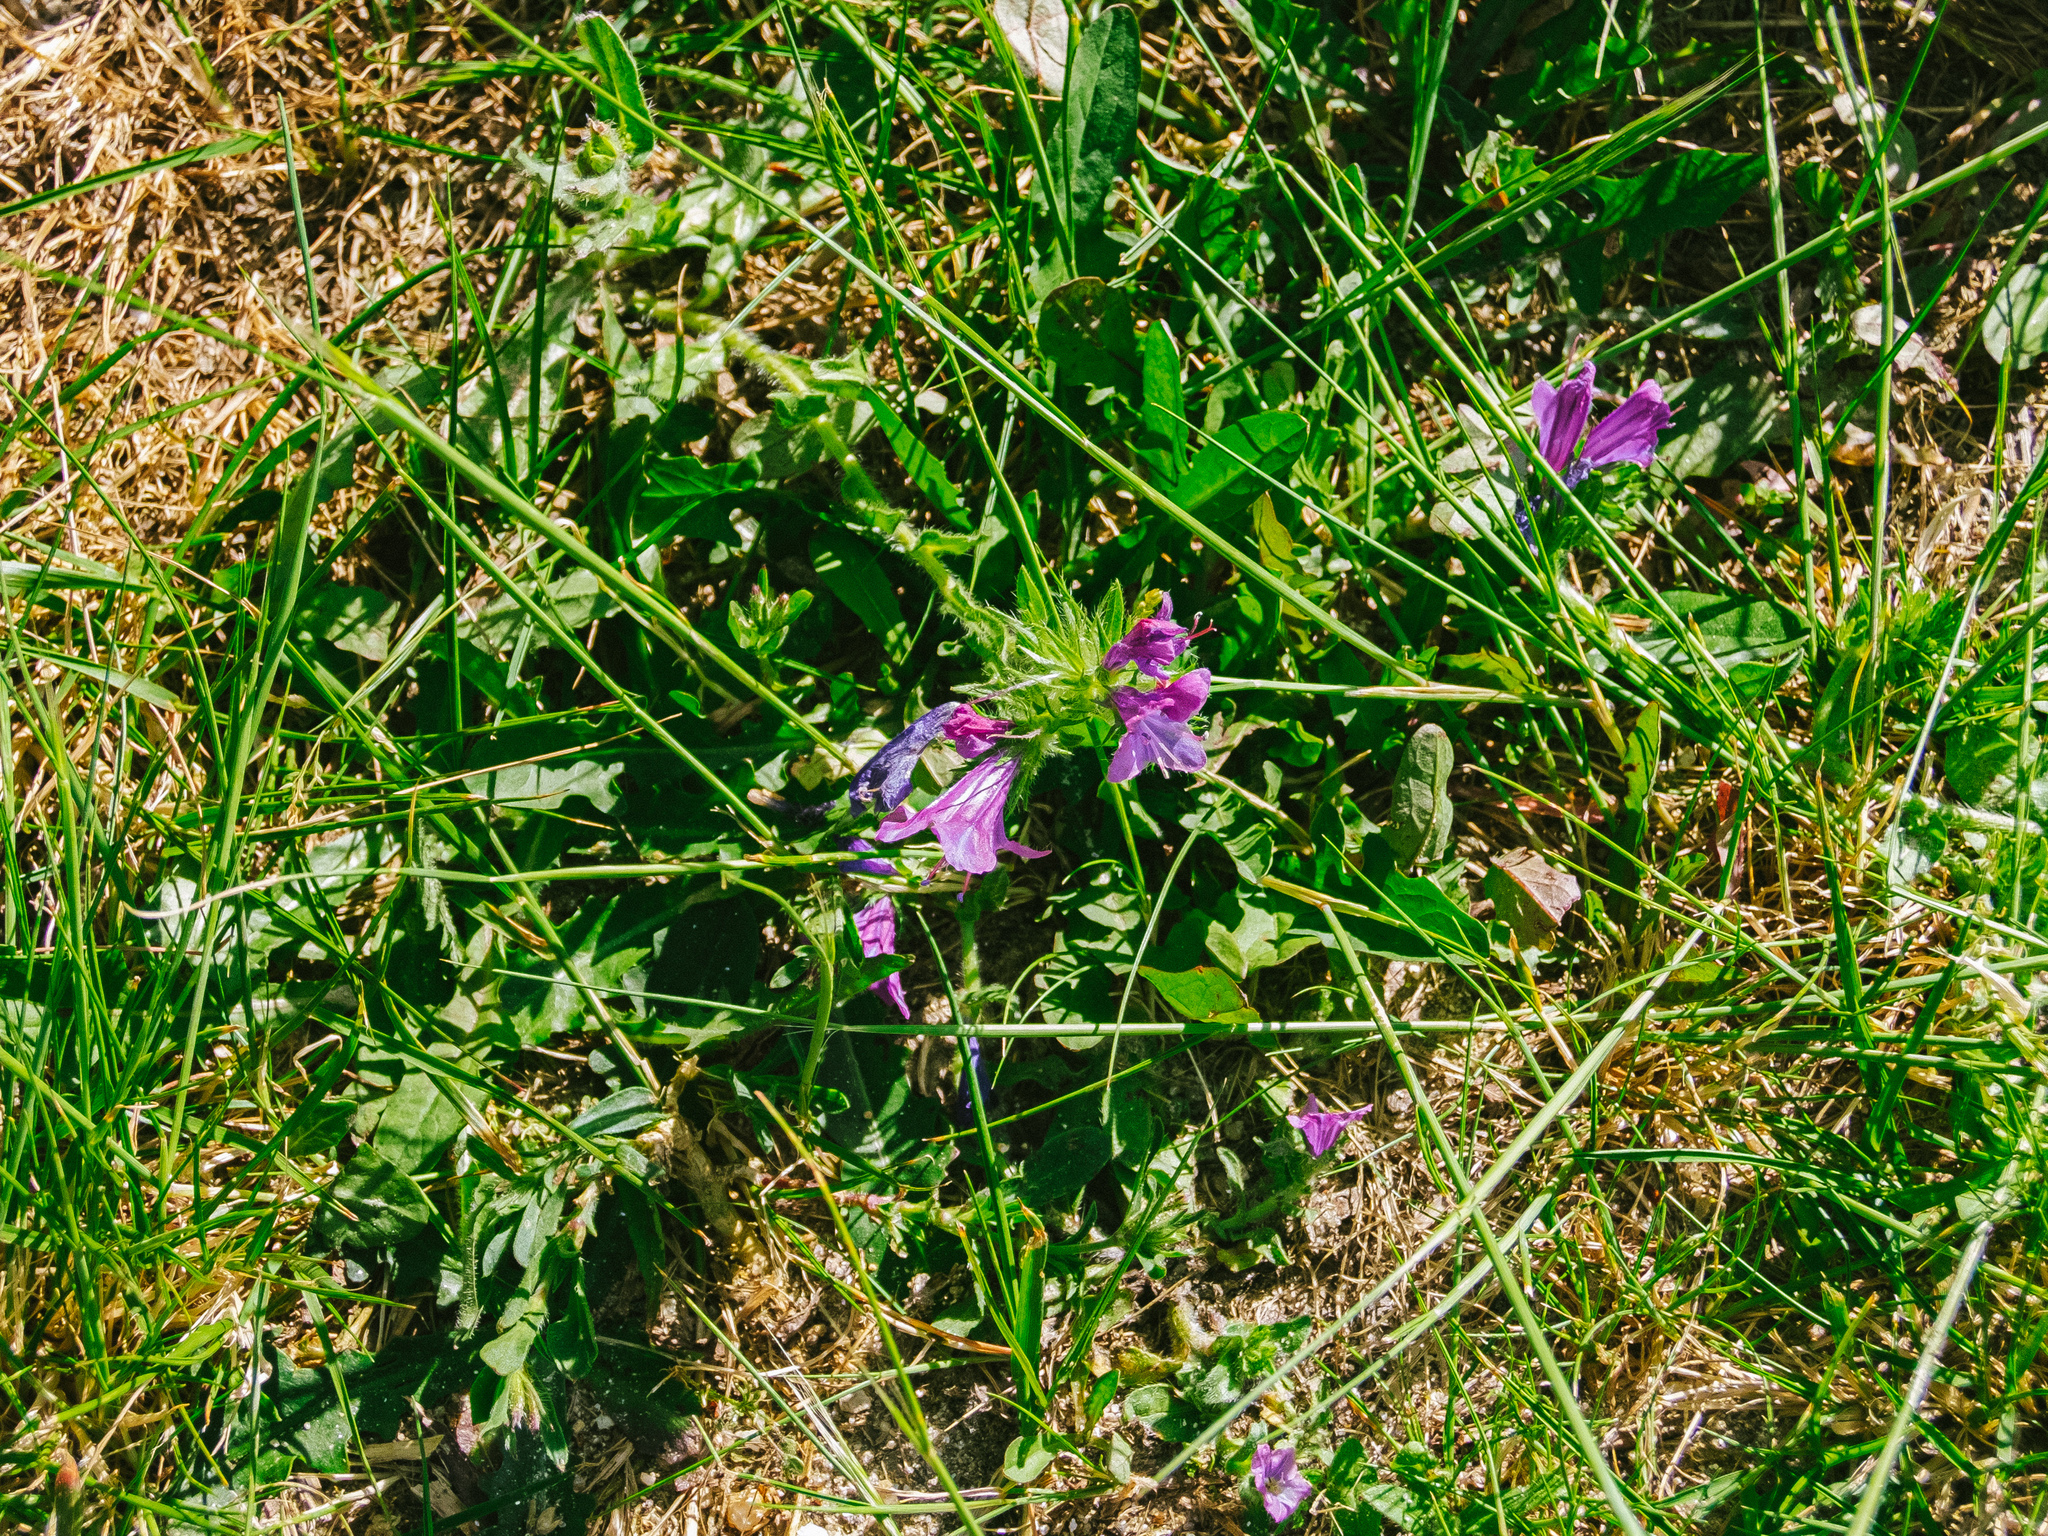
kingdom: Plantae
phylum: Tracheophyta
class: Magnoliopsida
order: Boraginales
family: Boraginaceae
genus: Echium
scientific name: Echium plantagineum
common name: Purple viper's-bugloss
